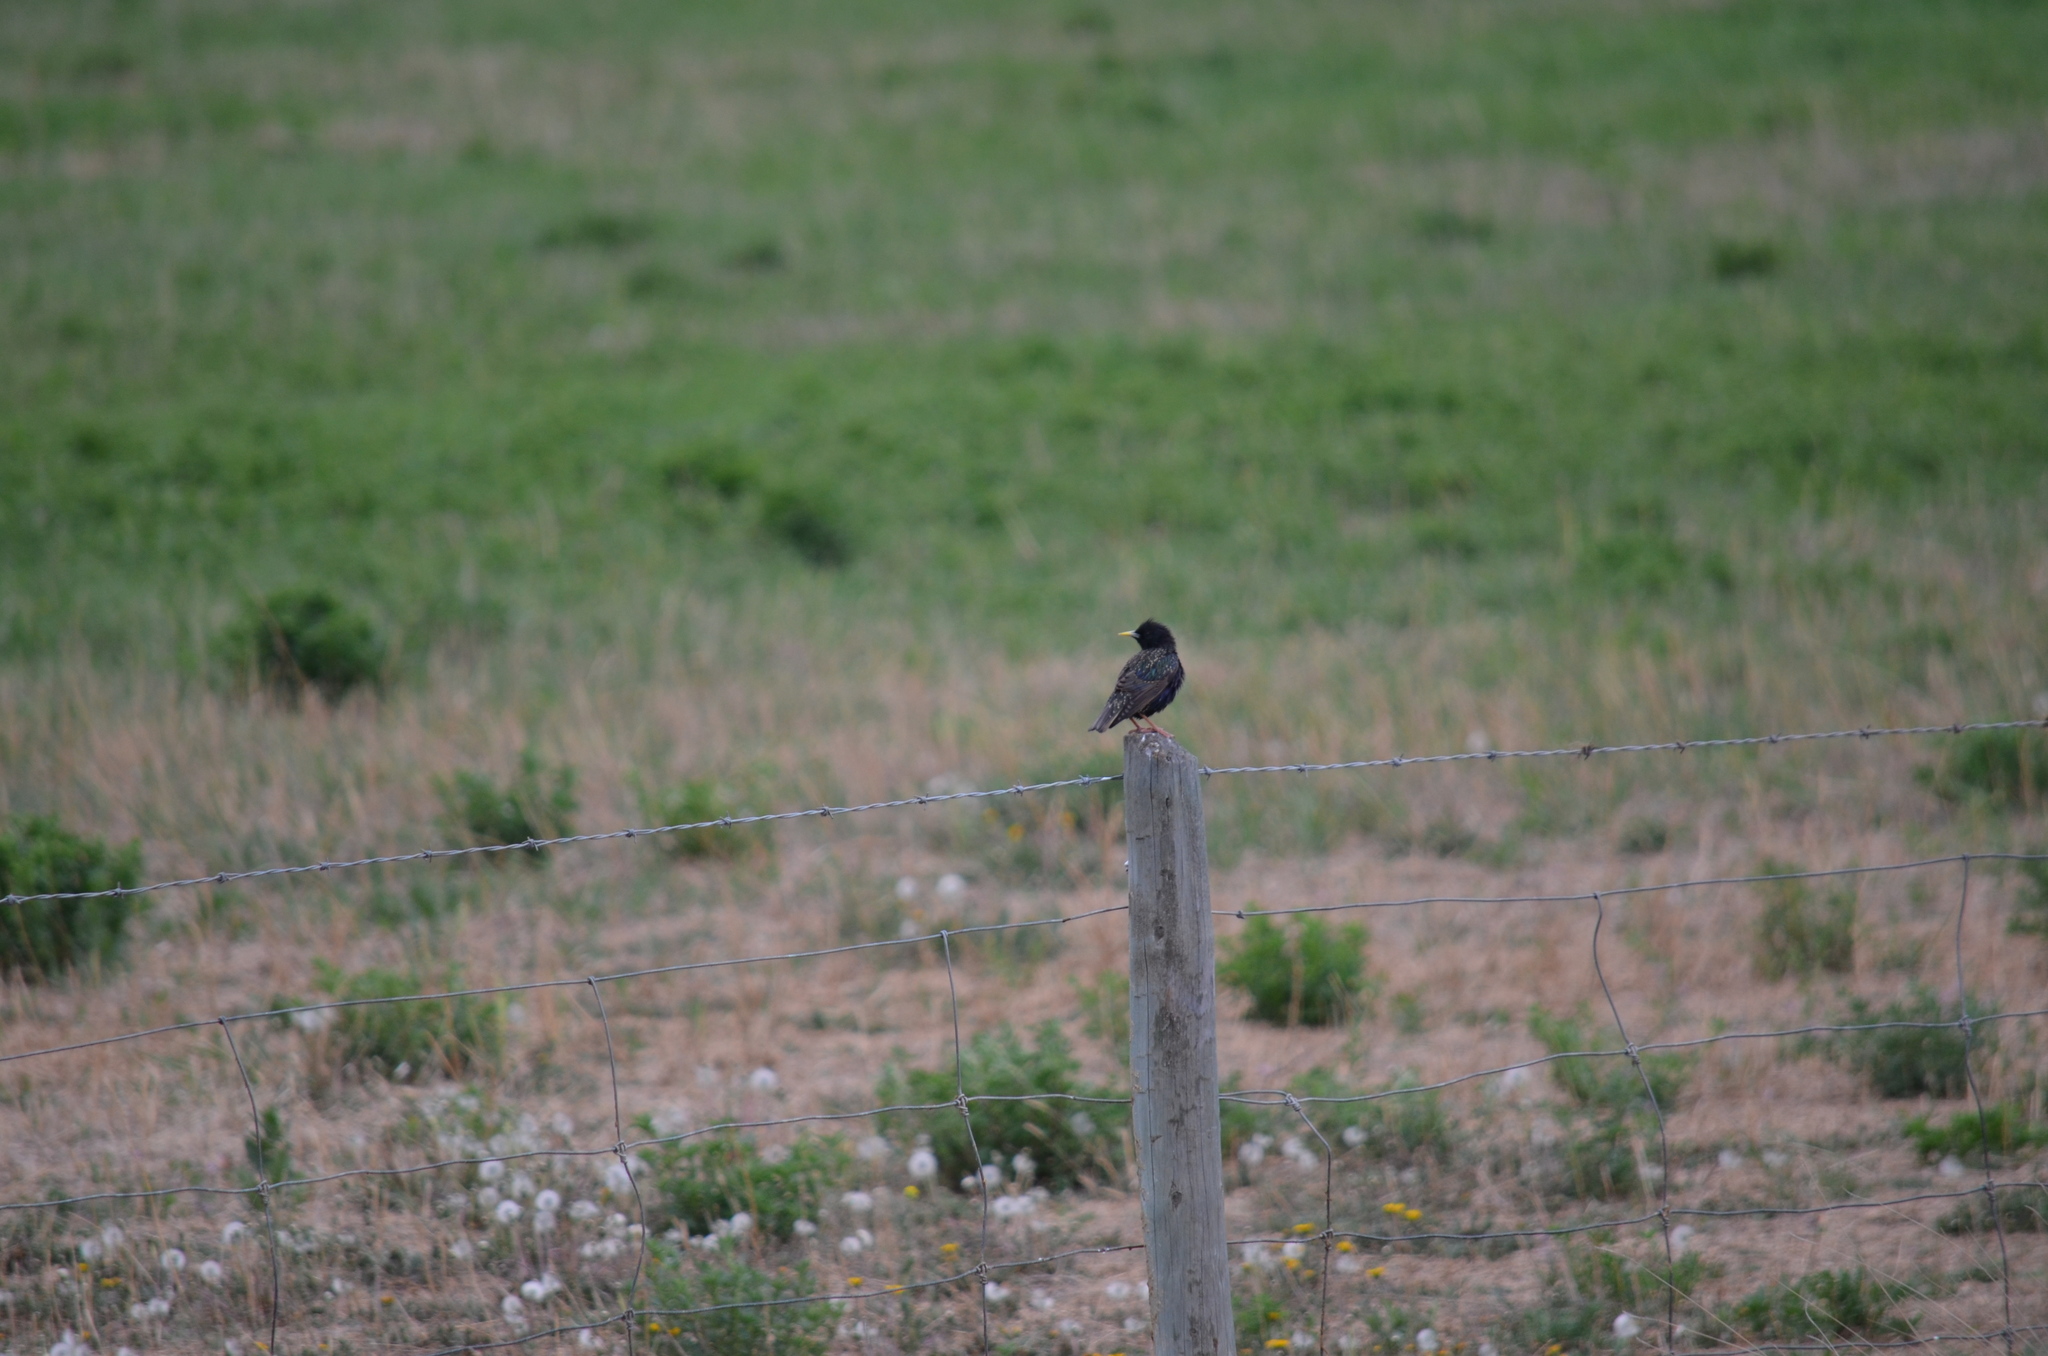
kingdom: Animalia
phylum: Chordata
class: Aves
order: Passeriformes
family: Sturnidae
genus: Sturnus
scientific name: Sturnus vulgaris
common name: Common starling
